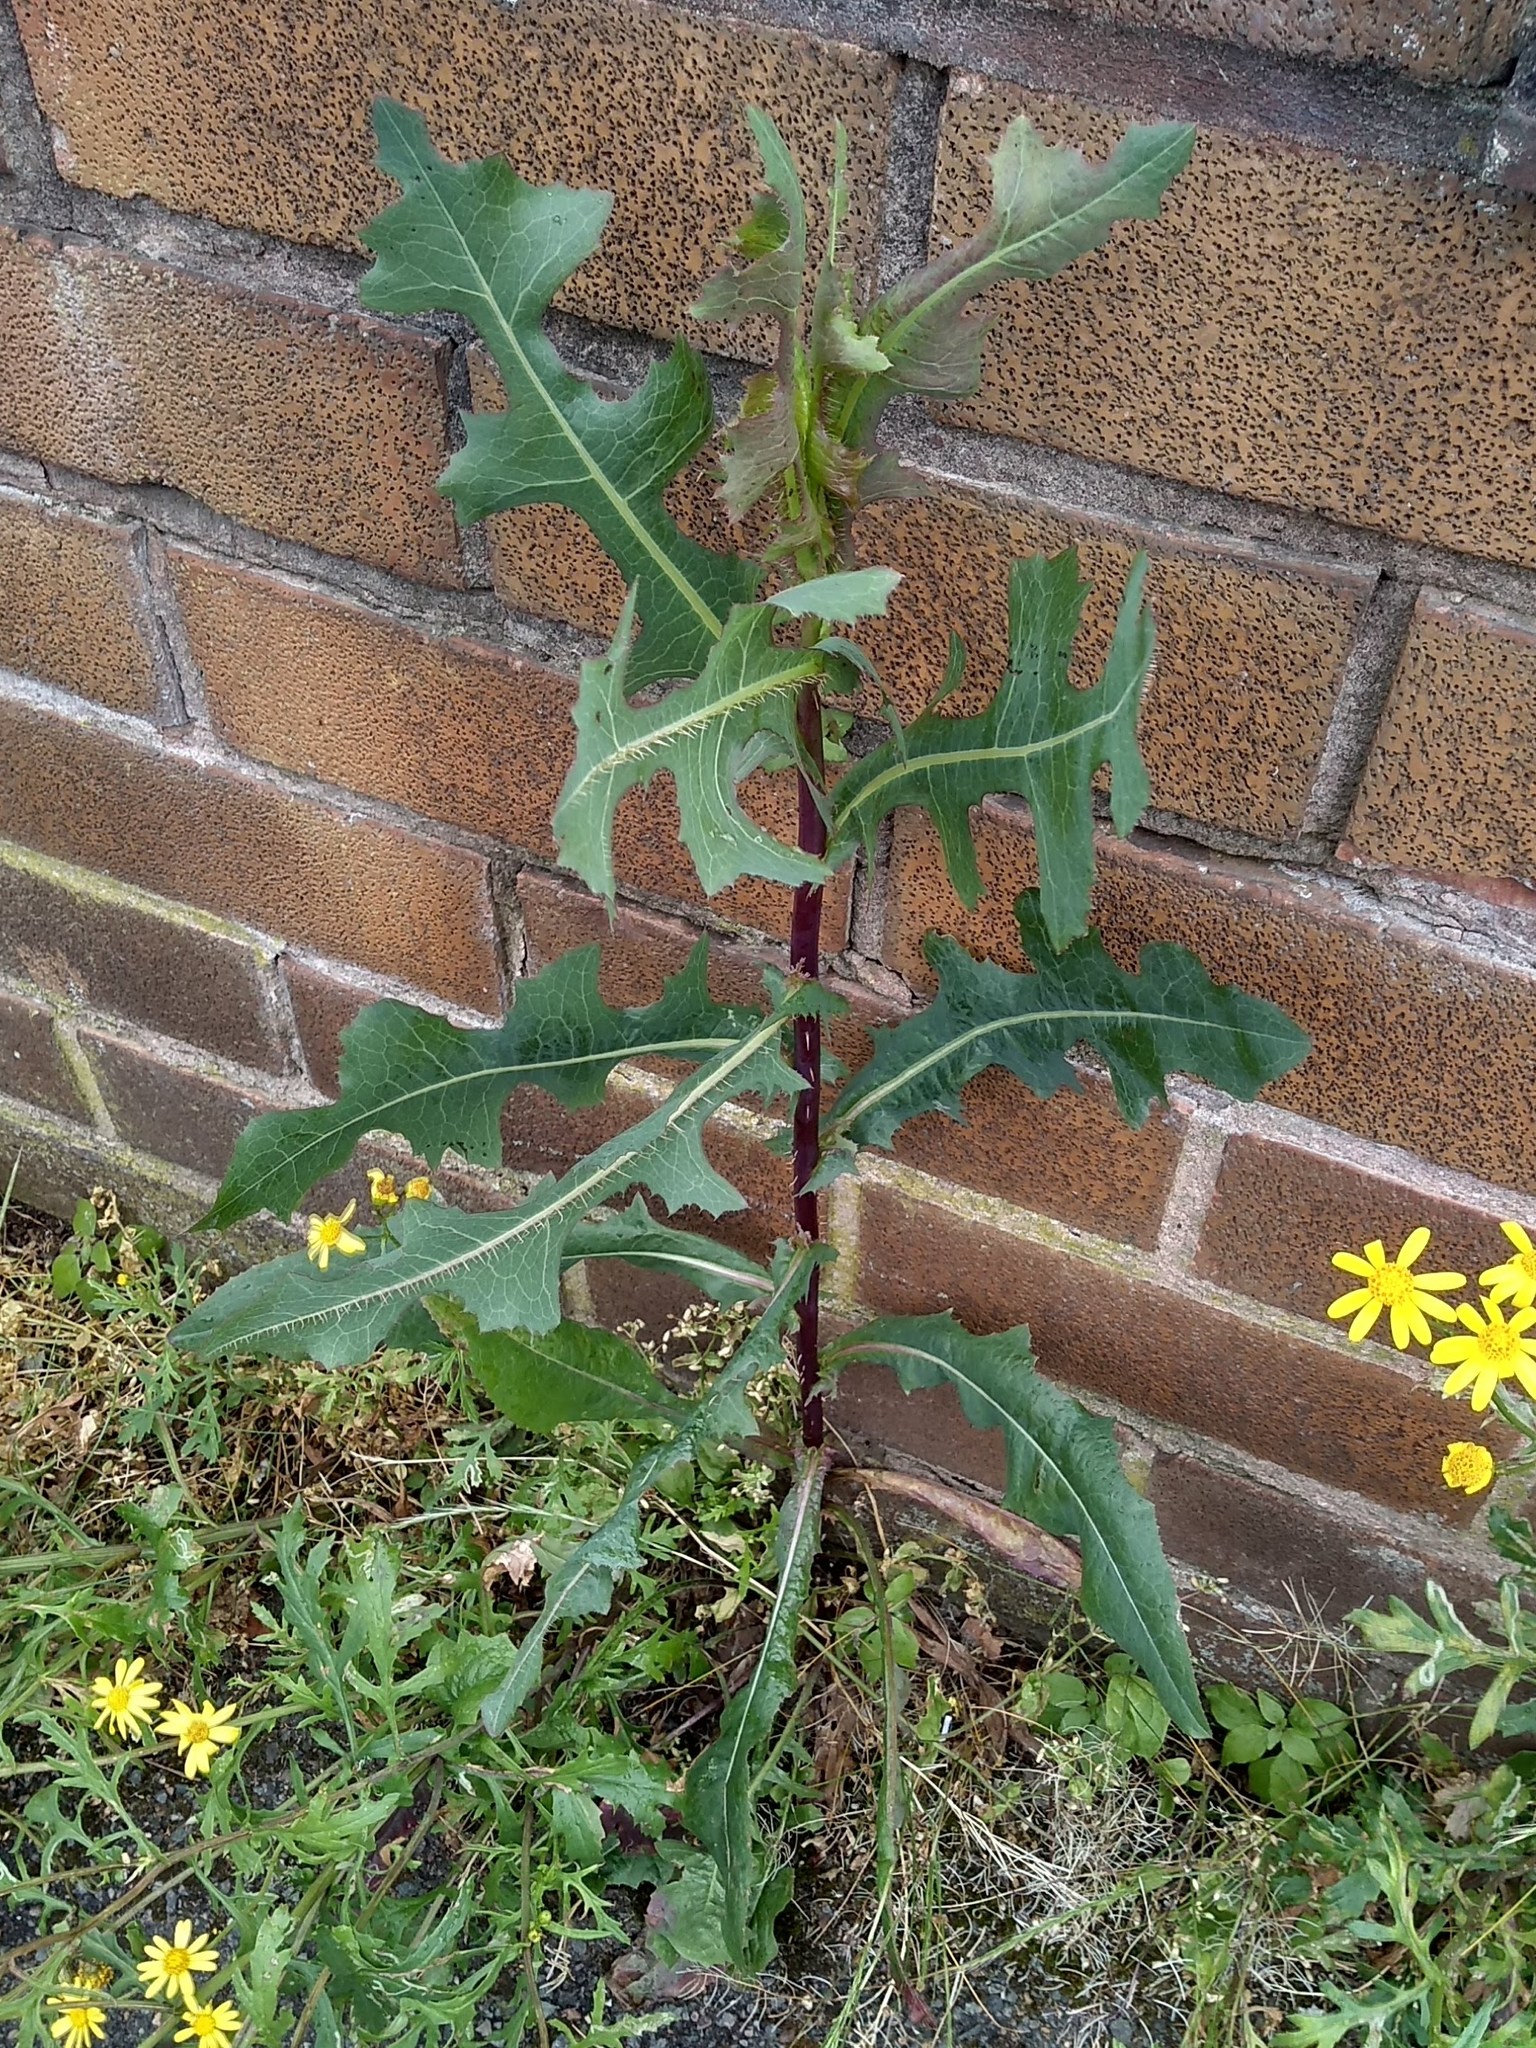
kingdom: Plantae
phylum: Tracheophyta
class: Magnoliopsida
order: Asterales
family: Asteraceae
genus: Lactuca
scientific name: Lactuca serriola
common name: Prickly lettuce
